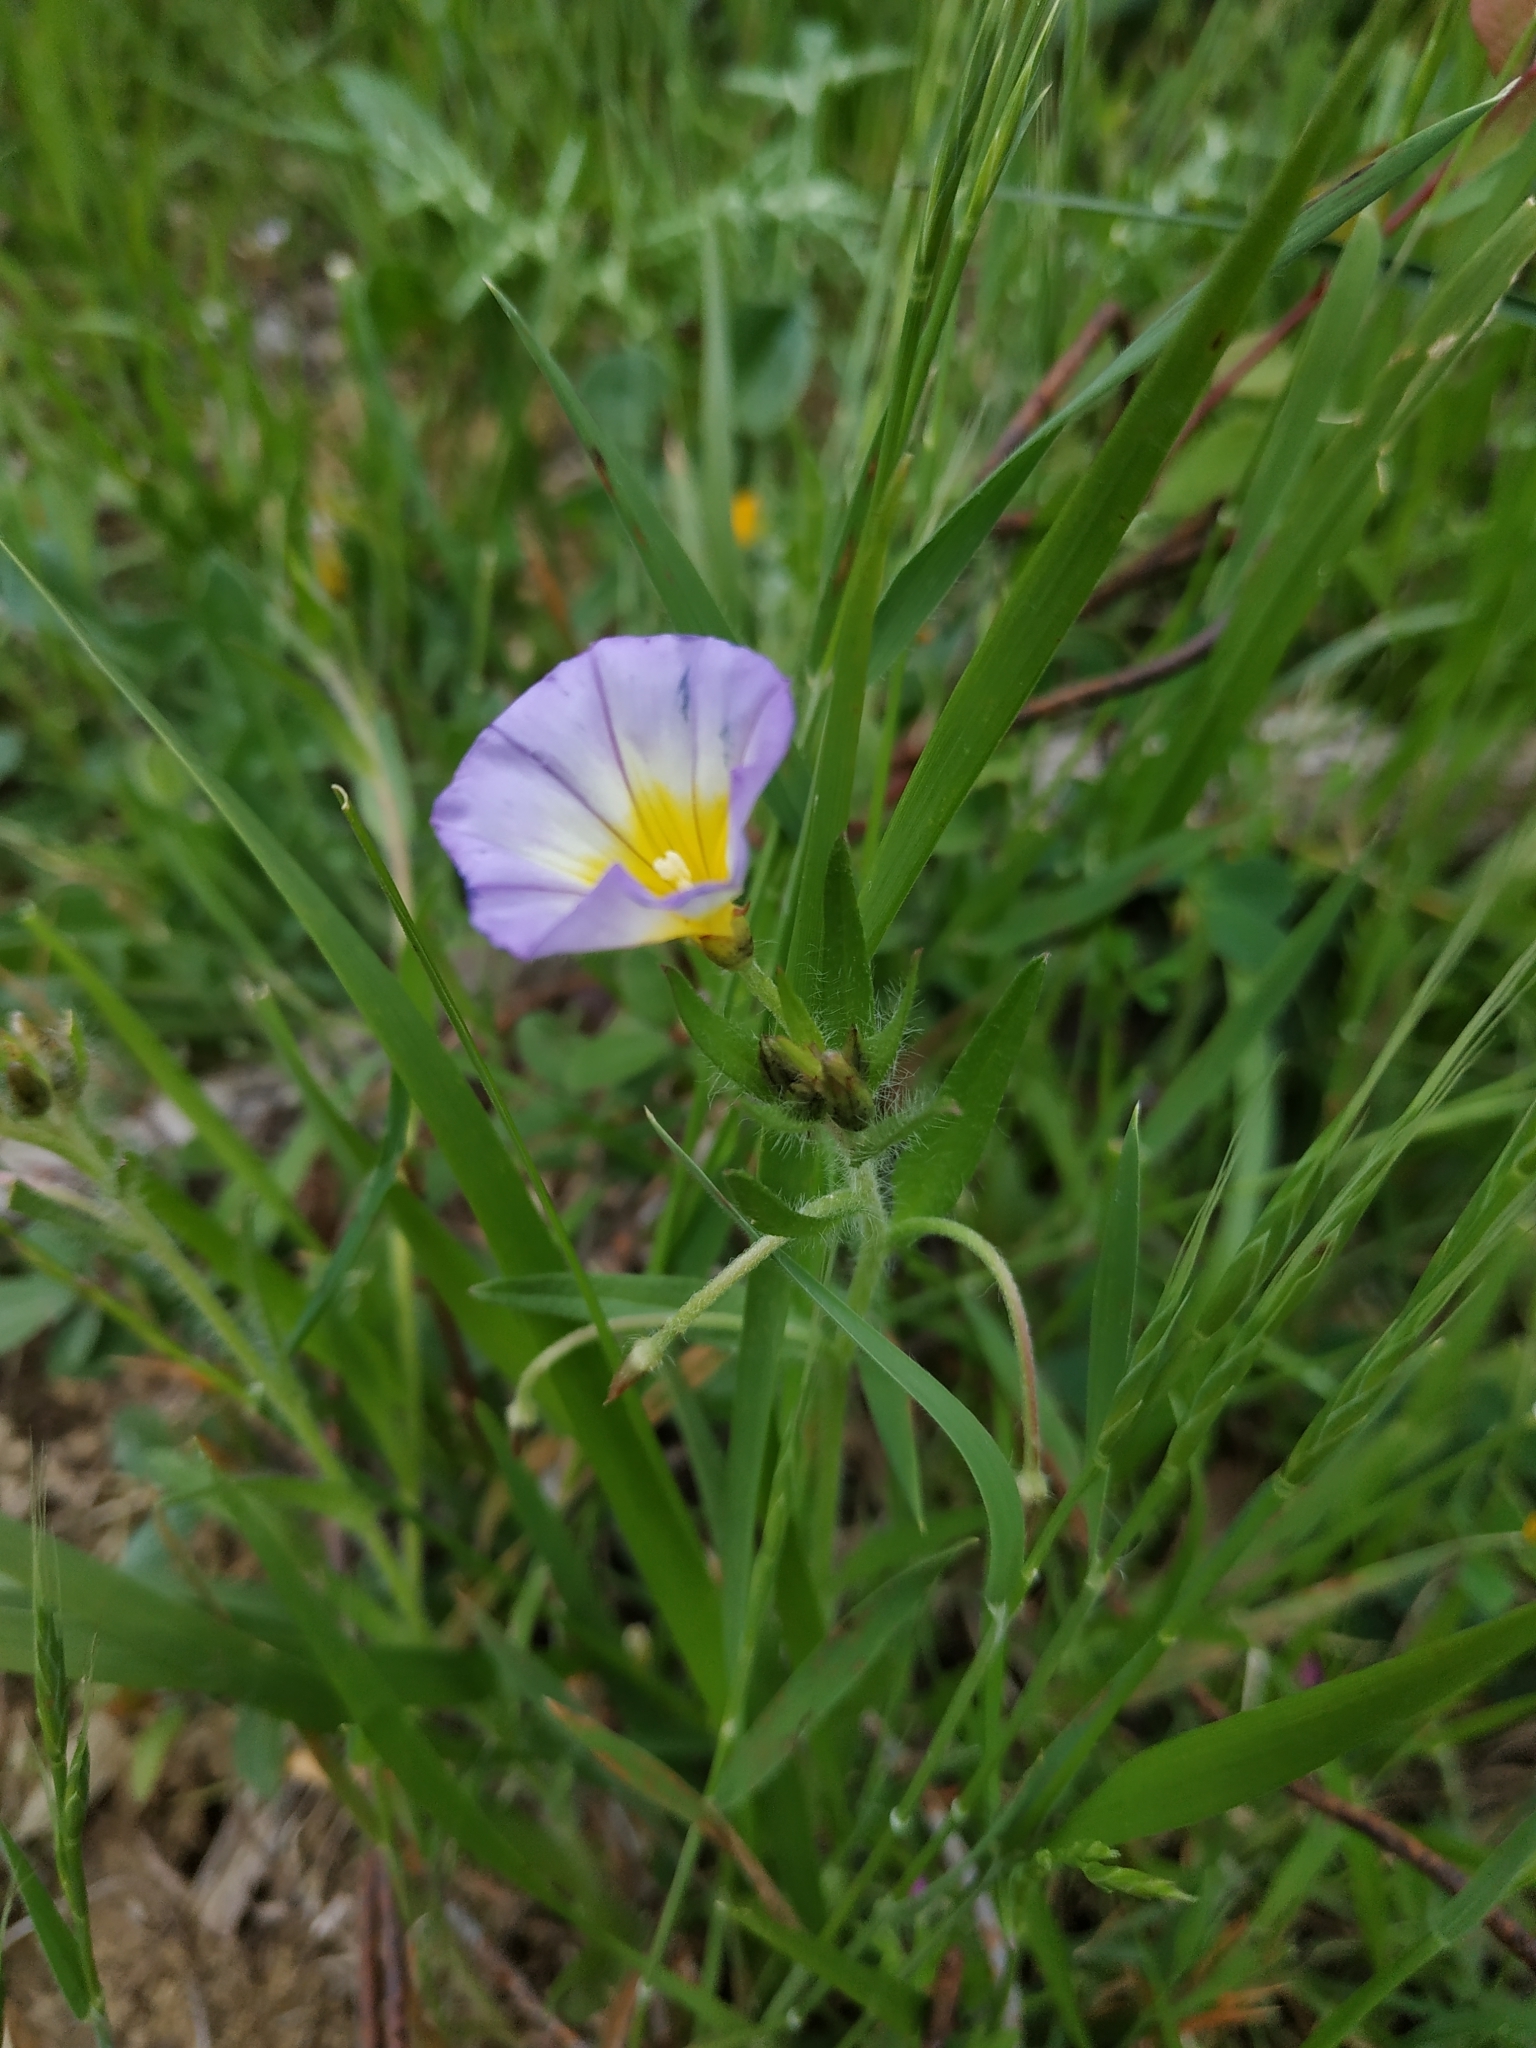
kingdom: Plantae
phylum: Tracheophyta
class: Magnoliopsida
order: Solanales
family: Convolvulaceae
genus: Convolvulus
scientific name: Convolvulus tricolor
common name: Dwarf morning-glory
